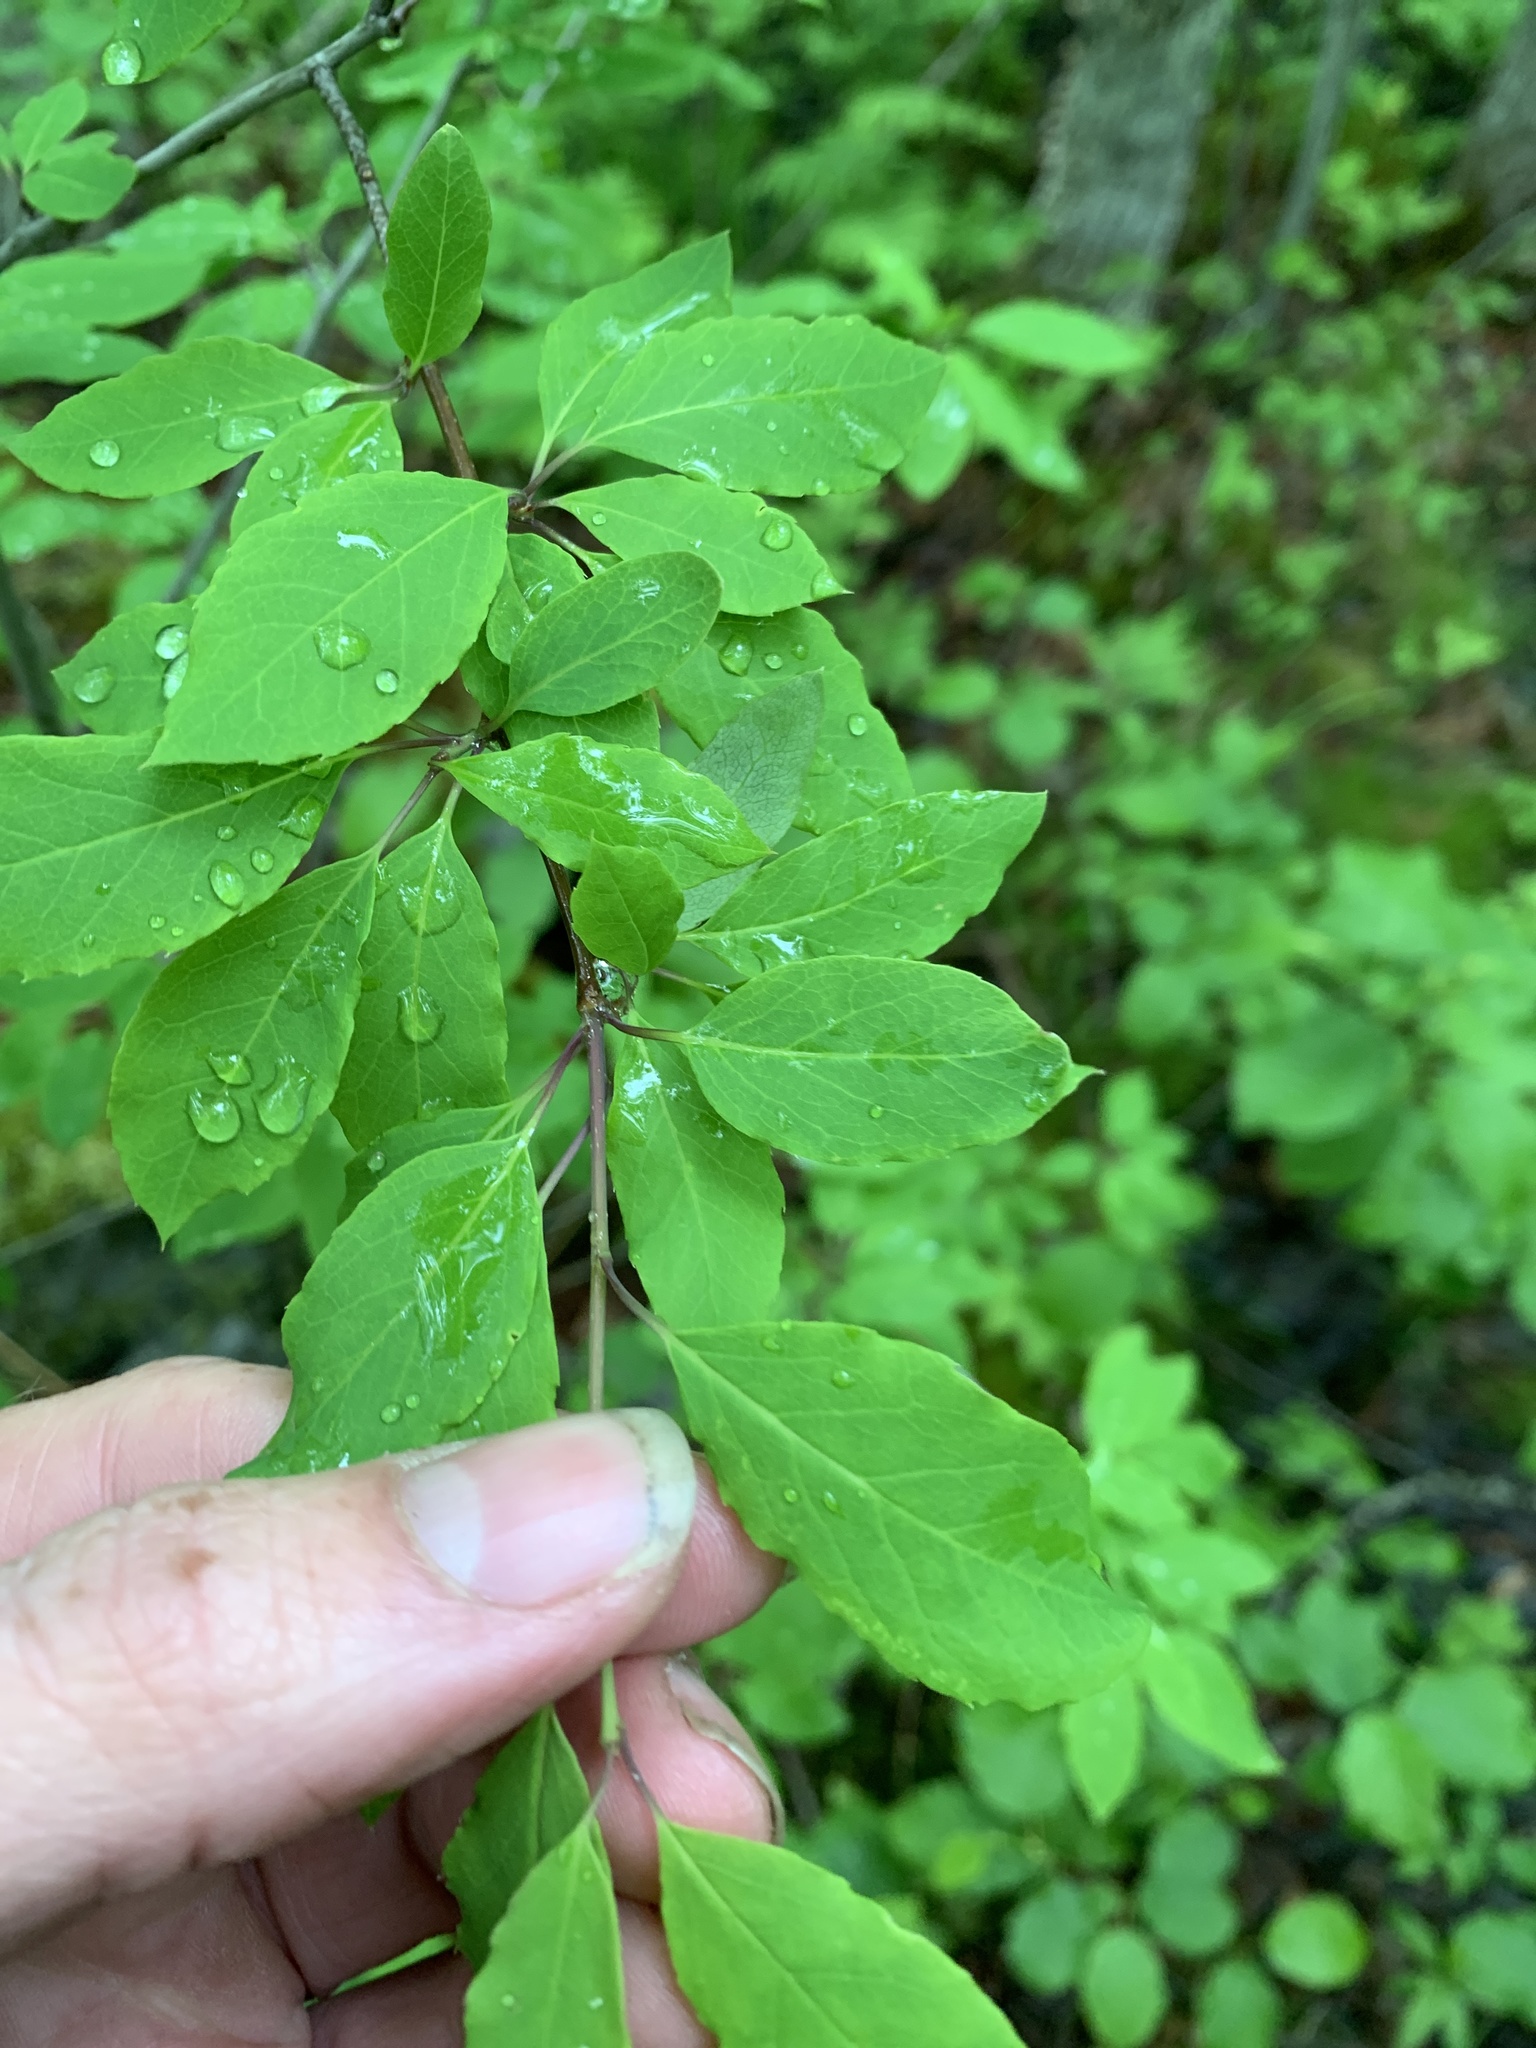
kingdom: Plantae
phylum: Tracheophyta
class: Magnoliopsida
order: Aquifoliales
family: Aquifoliaceae
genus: Ilex
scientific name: Ilex mucronata
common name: Catberry
